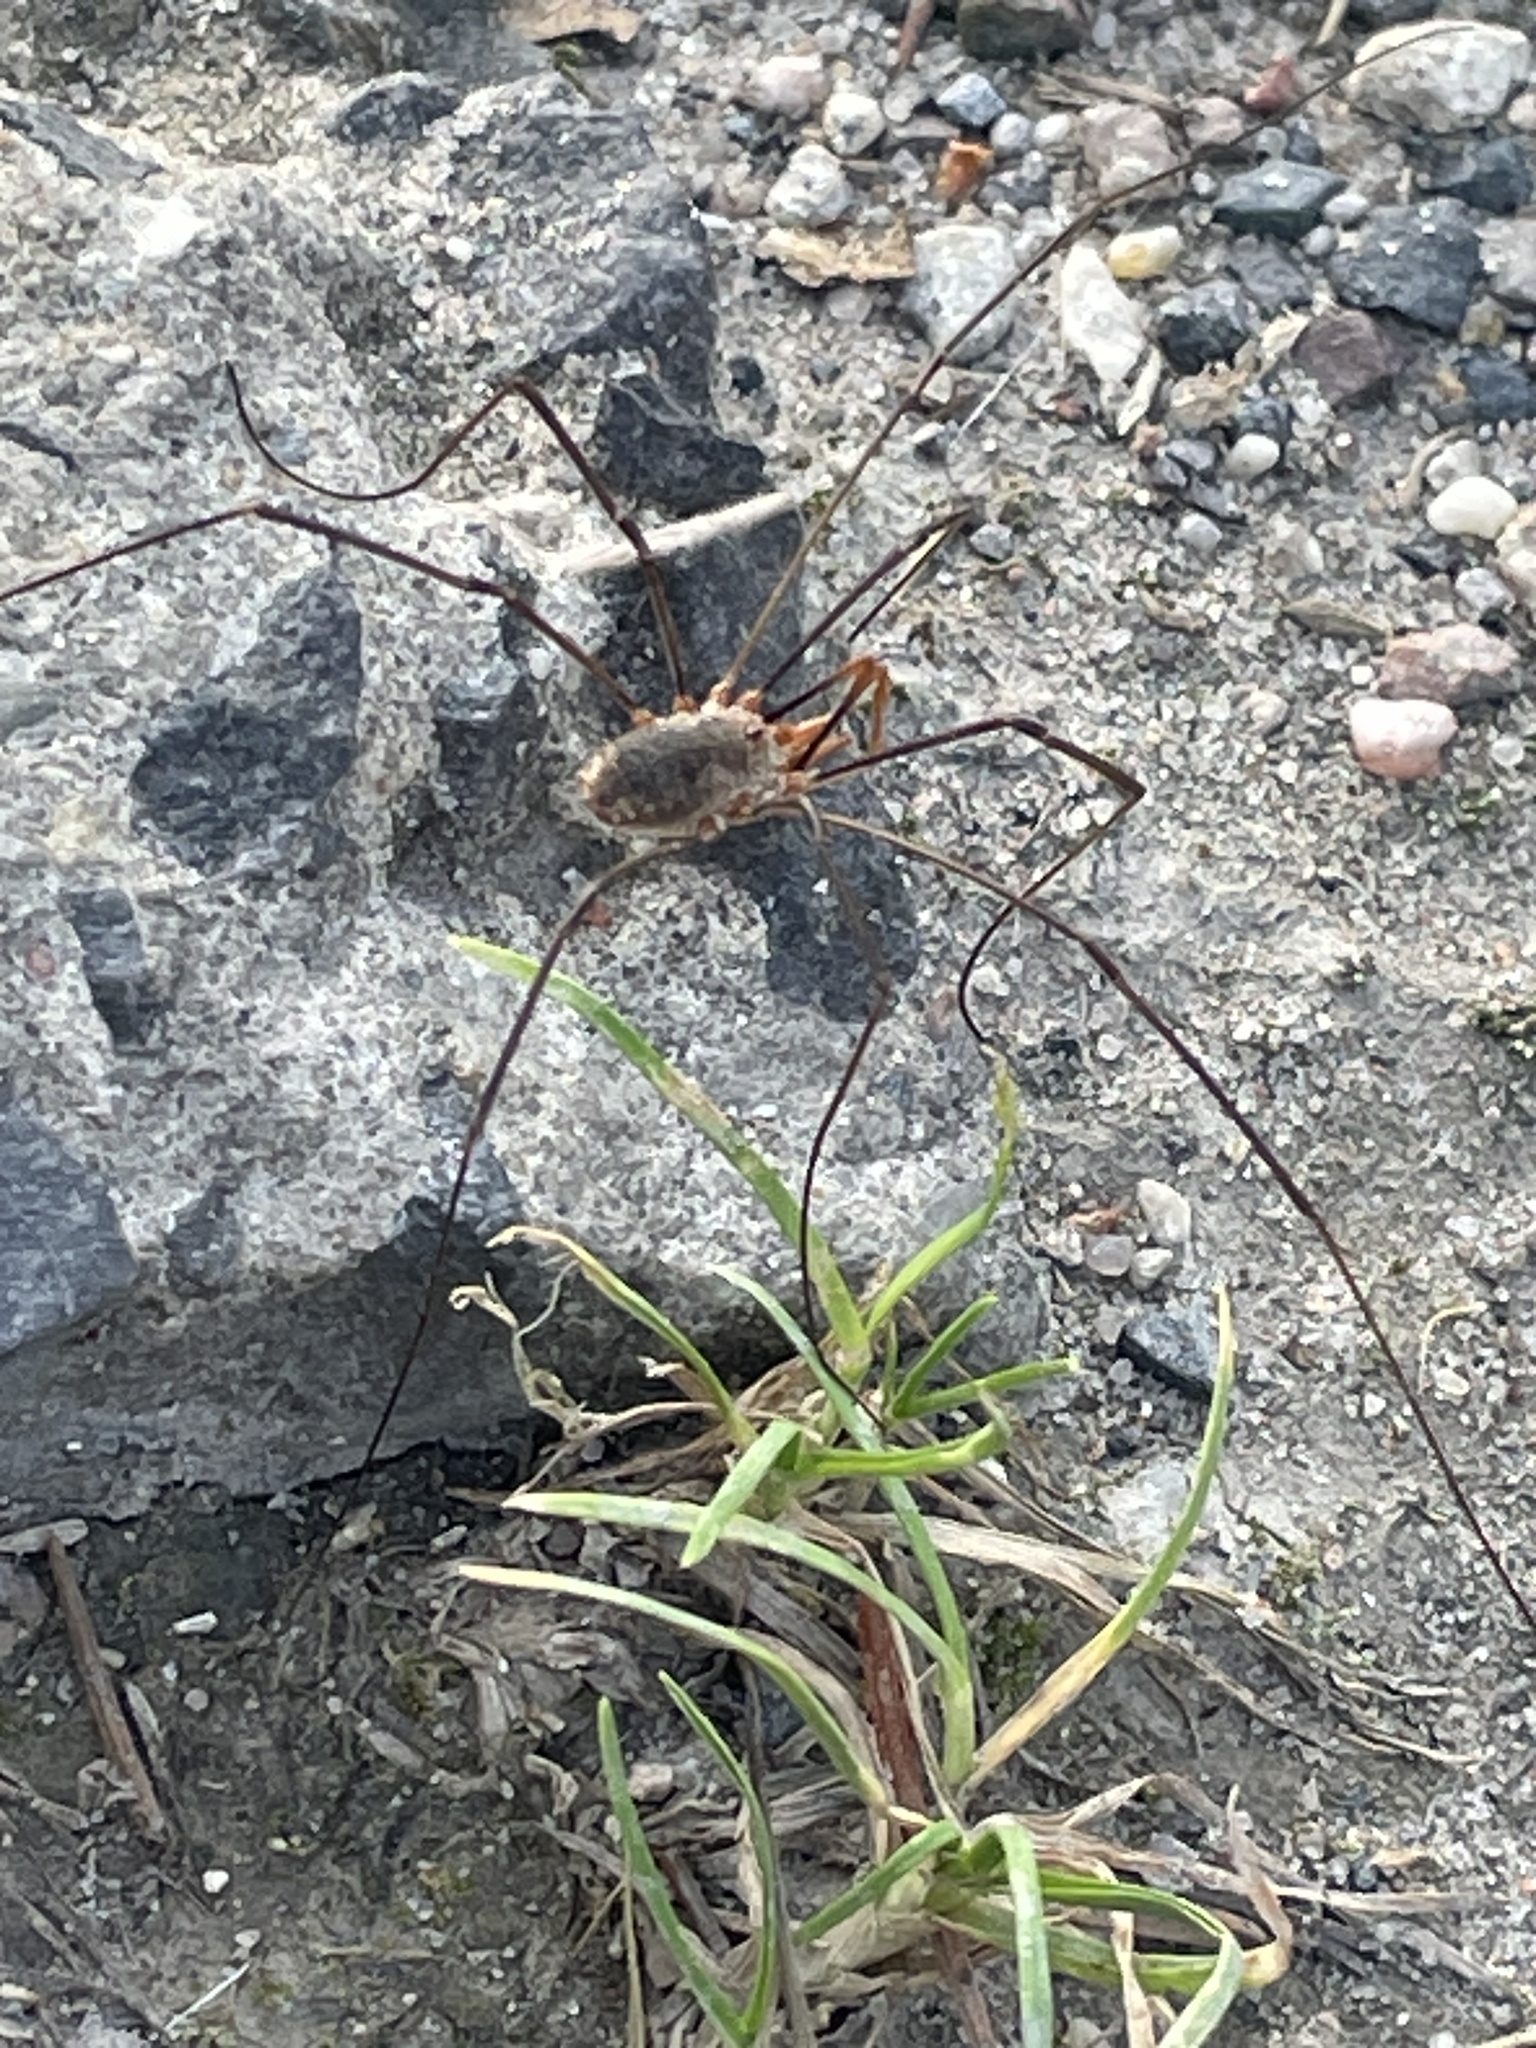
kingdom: Animalia
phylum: Arthropoda
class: Arachnida
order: Opiliones
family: Phalangiidae
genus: Phalangium
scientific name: Phalangium opilio
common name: Daddy longleg
